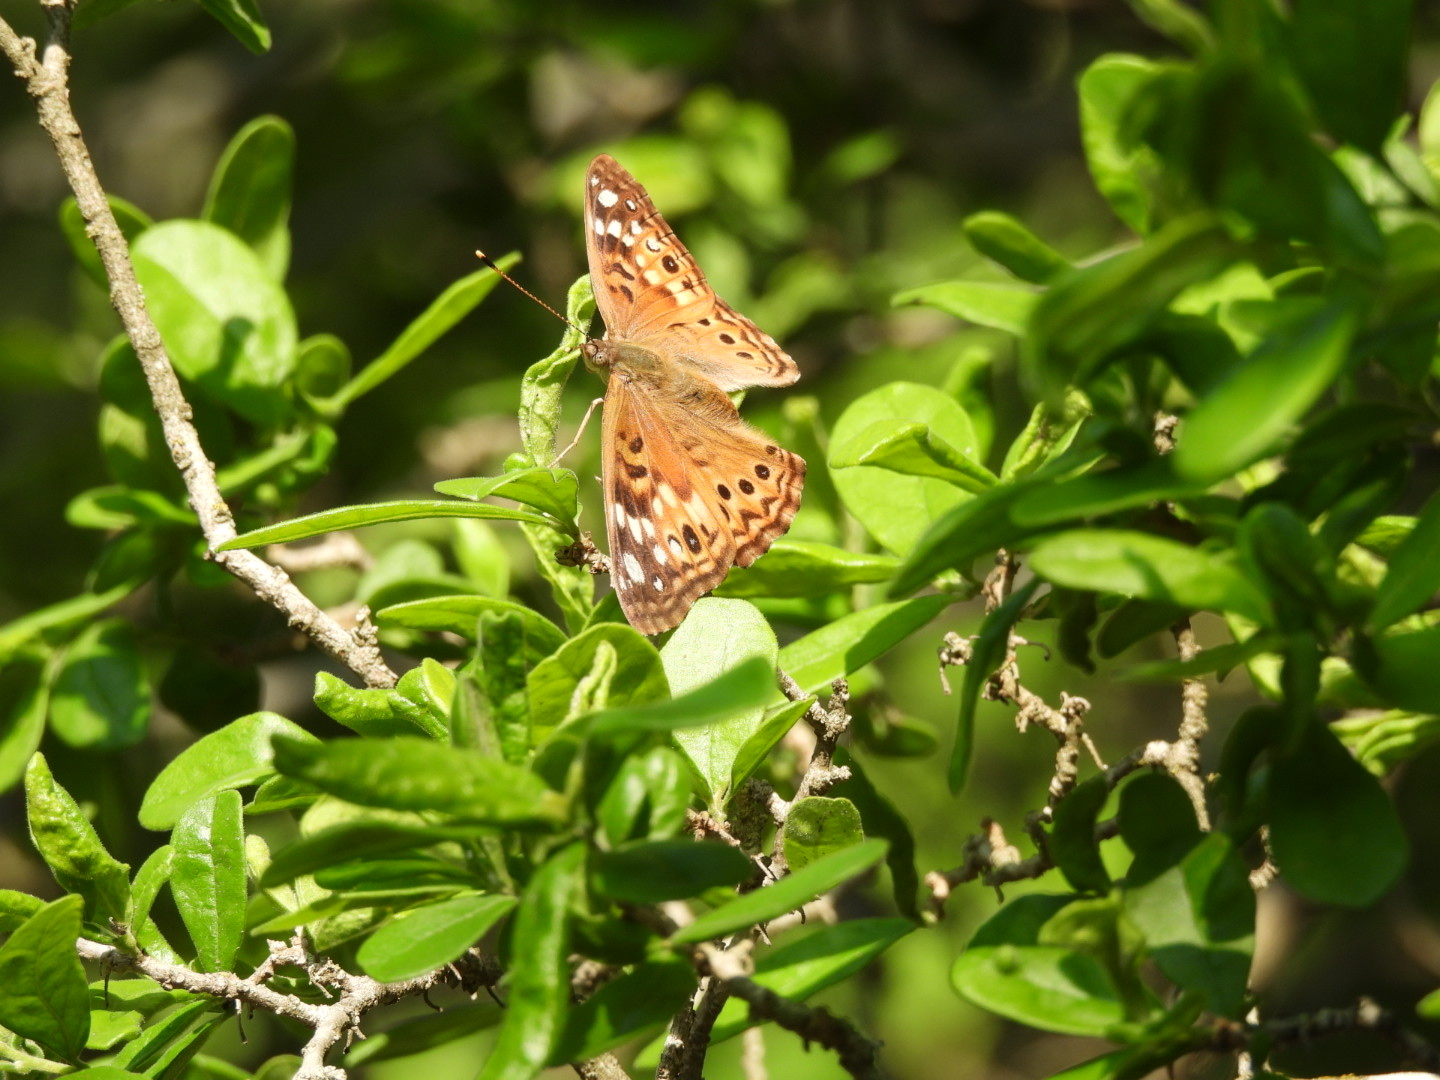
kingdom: Animalia
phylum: Arthropoda
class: Insecta
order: Lepidoptera
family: Nymphalidae
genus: Asterocampa
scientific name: Asterocampa celtis
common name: Hackberry emperor
